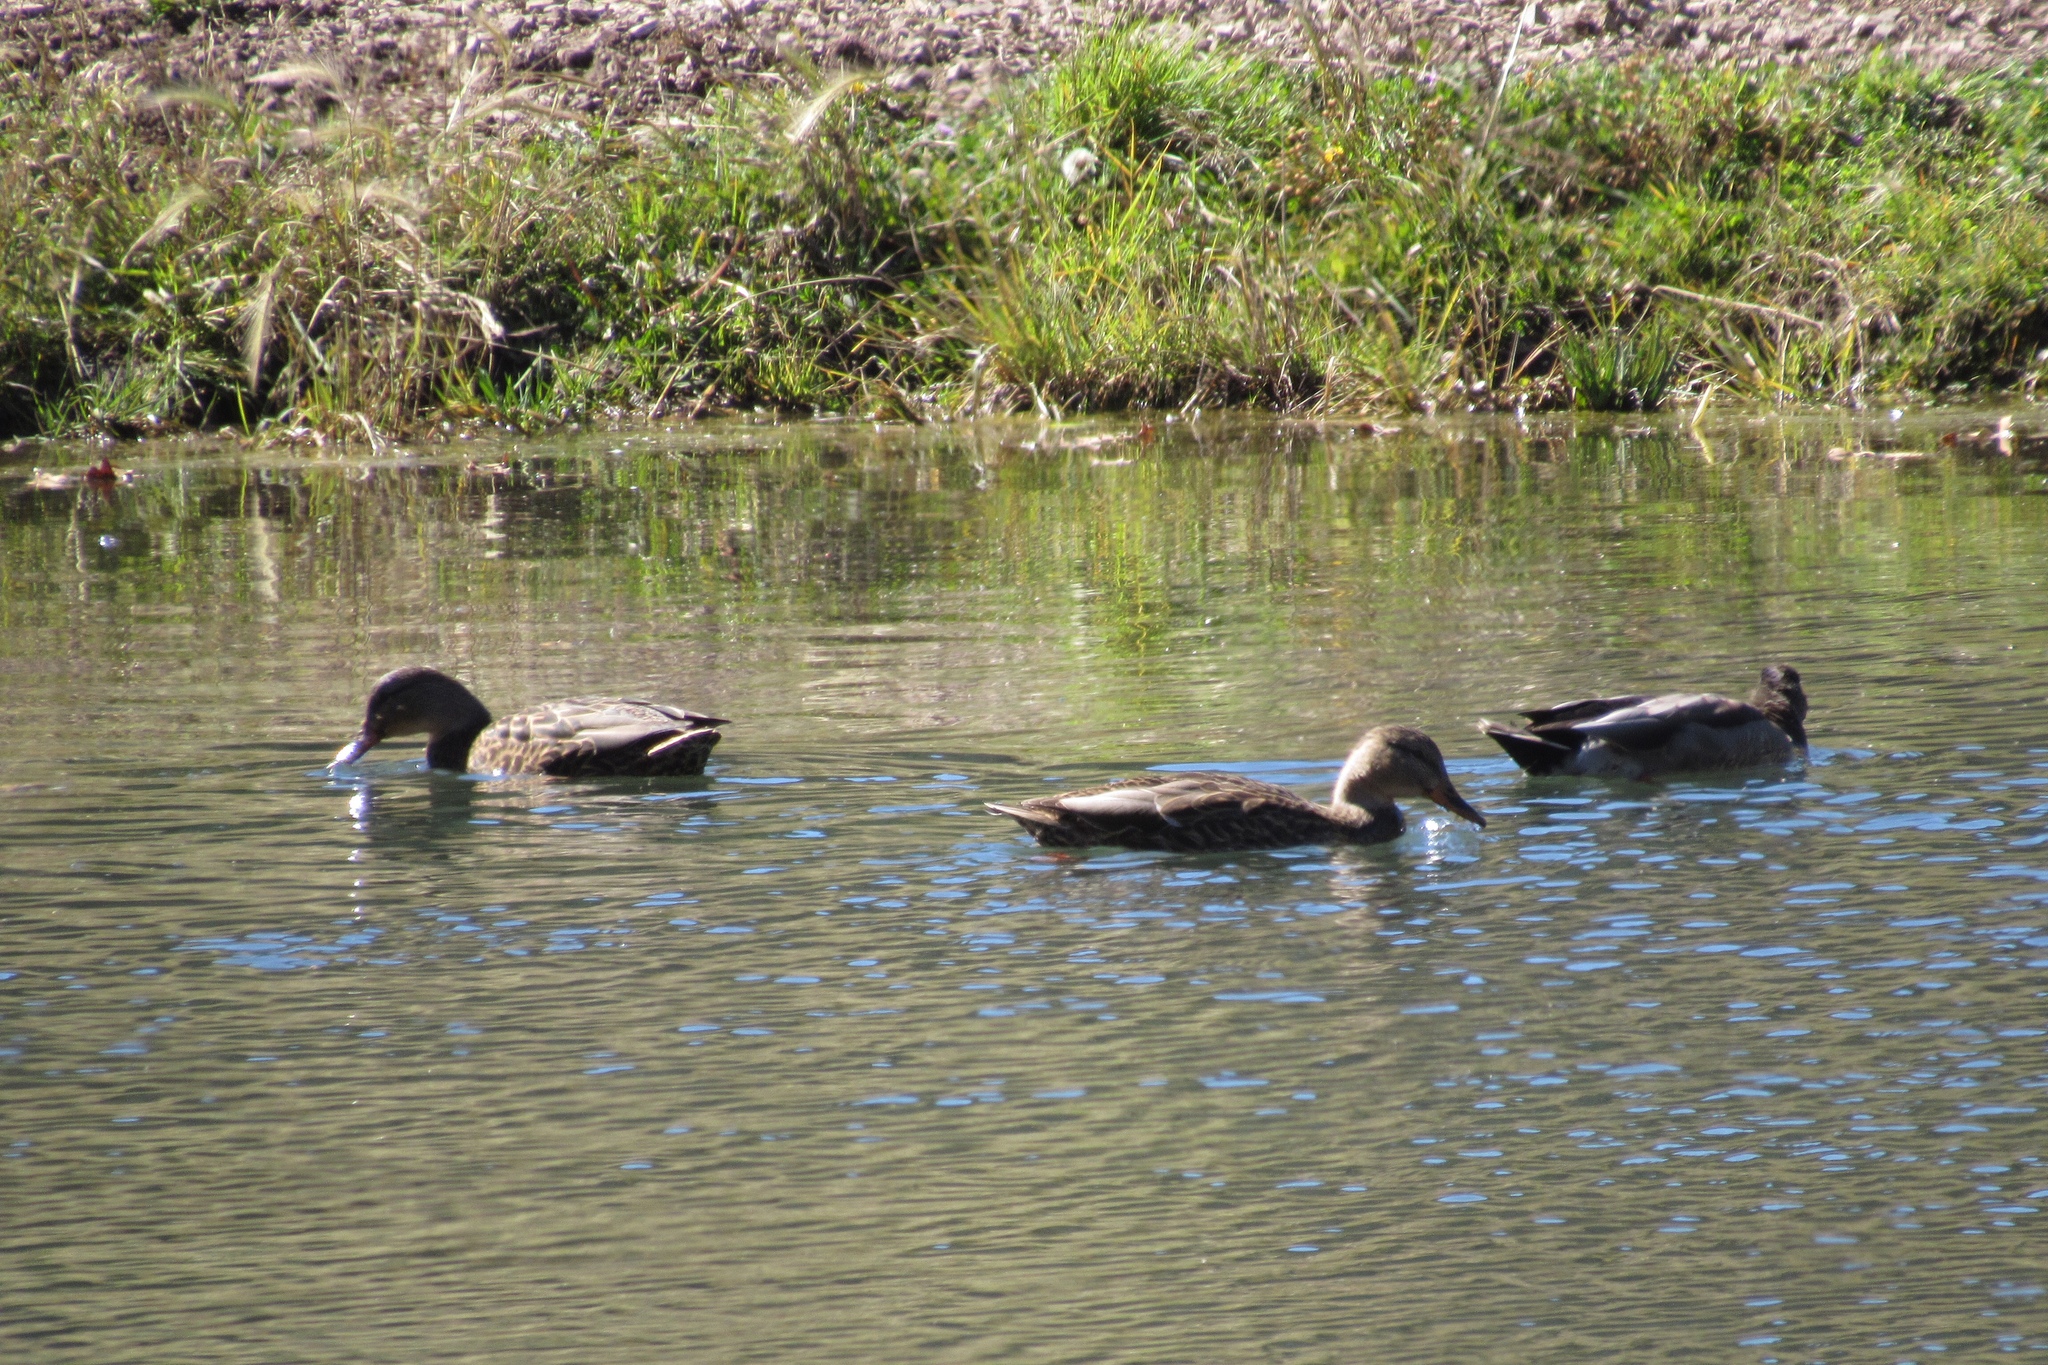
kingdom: Animalia
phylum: Chordata
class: Aves
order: Anseriformes
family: Anatidae
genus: Anas
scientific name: Anas platyrhynchos
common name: Mallard
